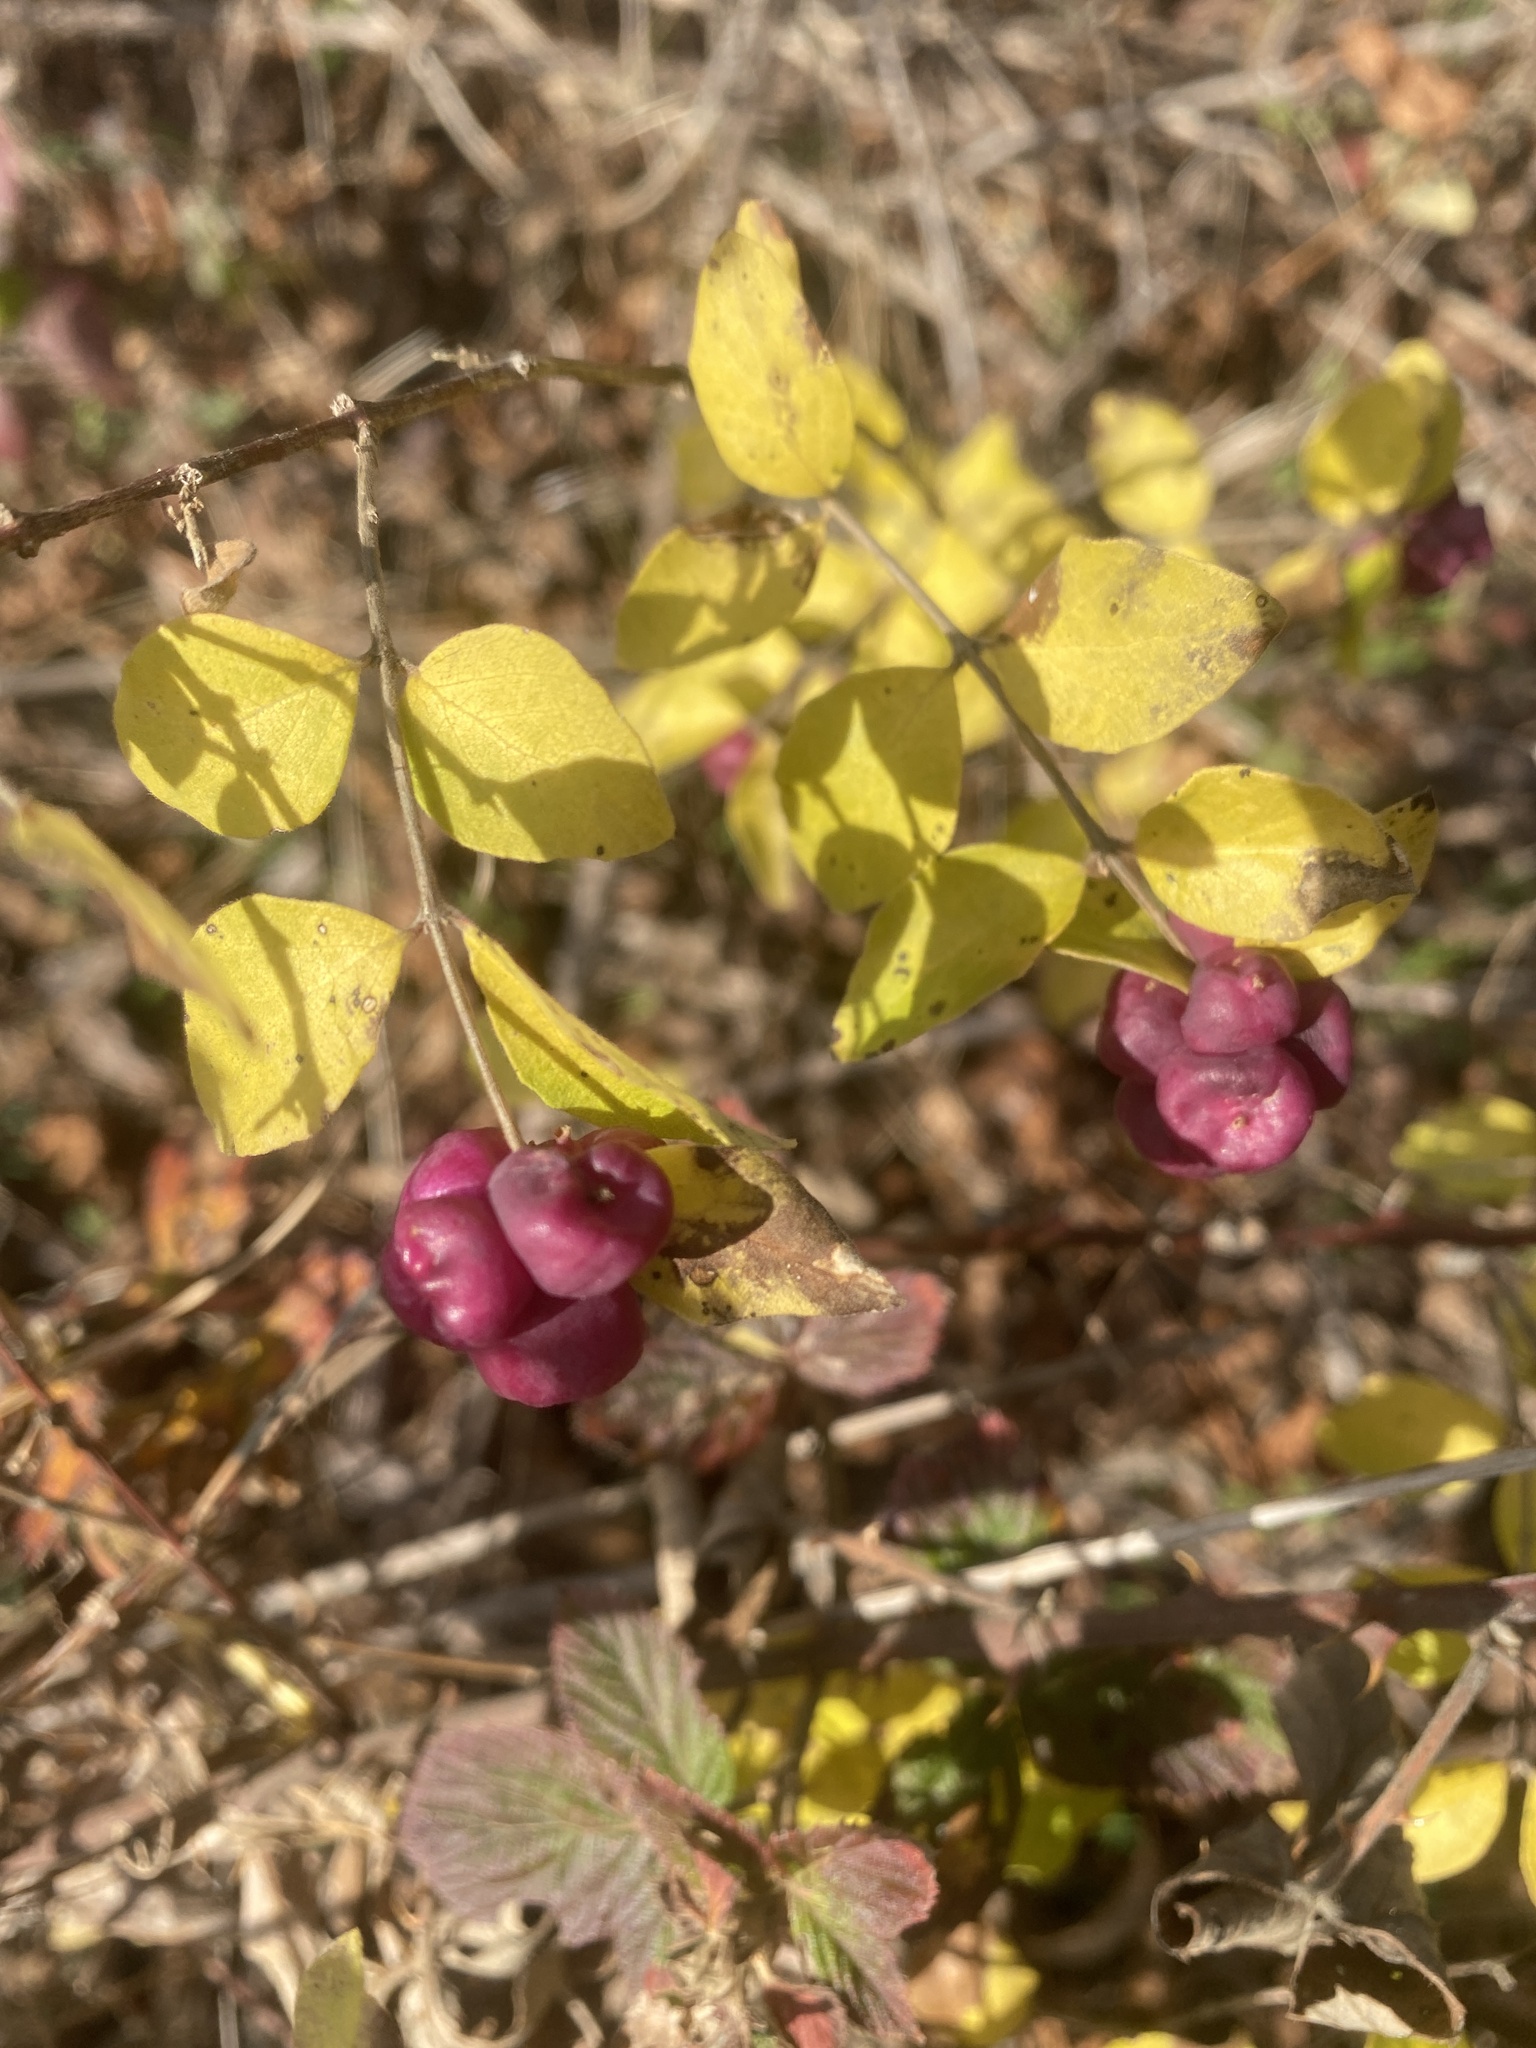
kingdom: Plantae
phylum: Tracheophyta
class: Magnoliopsida
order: Dipsacales
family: Caprifoliaceae
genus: Symphoricarpos
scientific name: Symphoricarpos orbiculatus
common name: Coralberry
